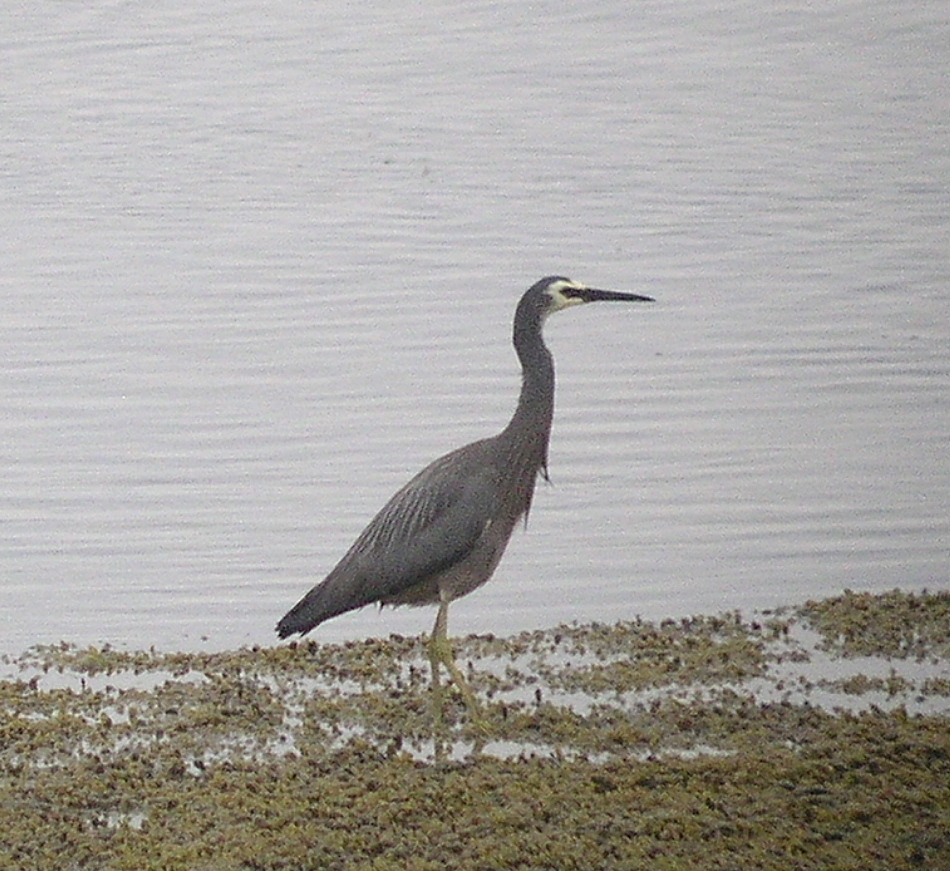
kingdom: Animalia
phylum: Chordata
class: Aves
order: Pelecaniformes
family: Ardeidae
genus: Egretta
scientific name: Egretta novaehollandiae
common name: White-faced heron
